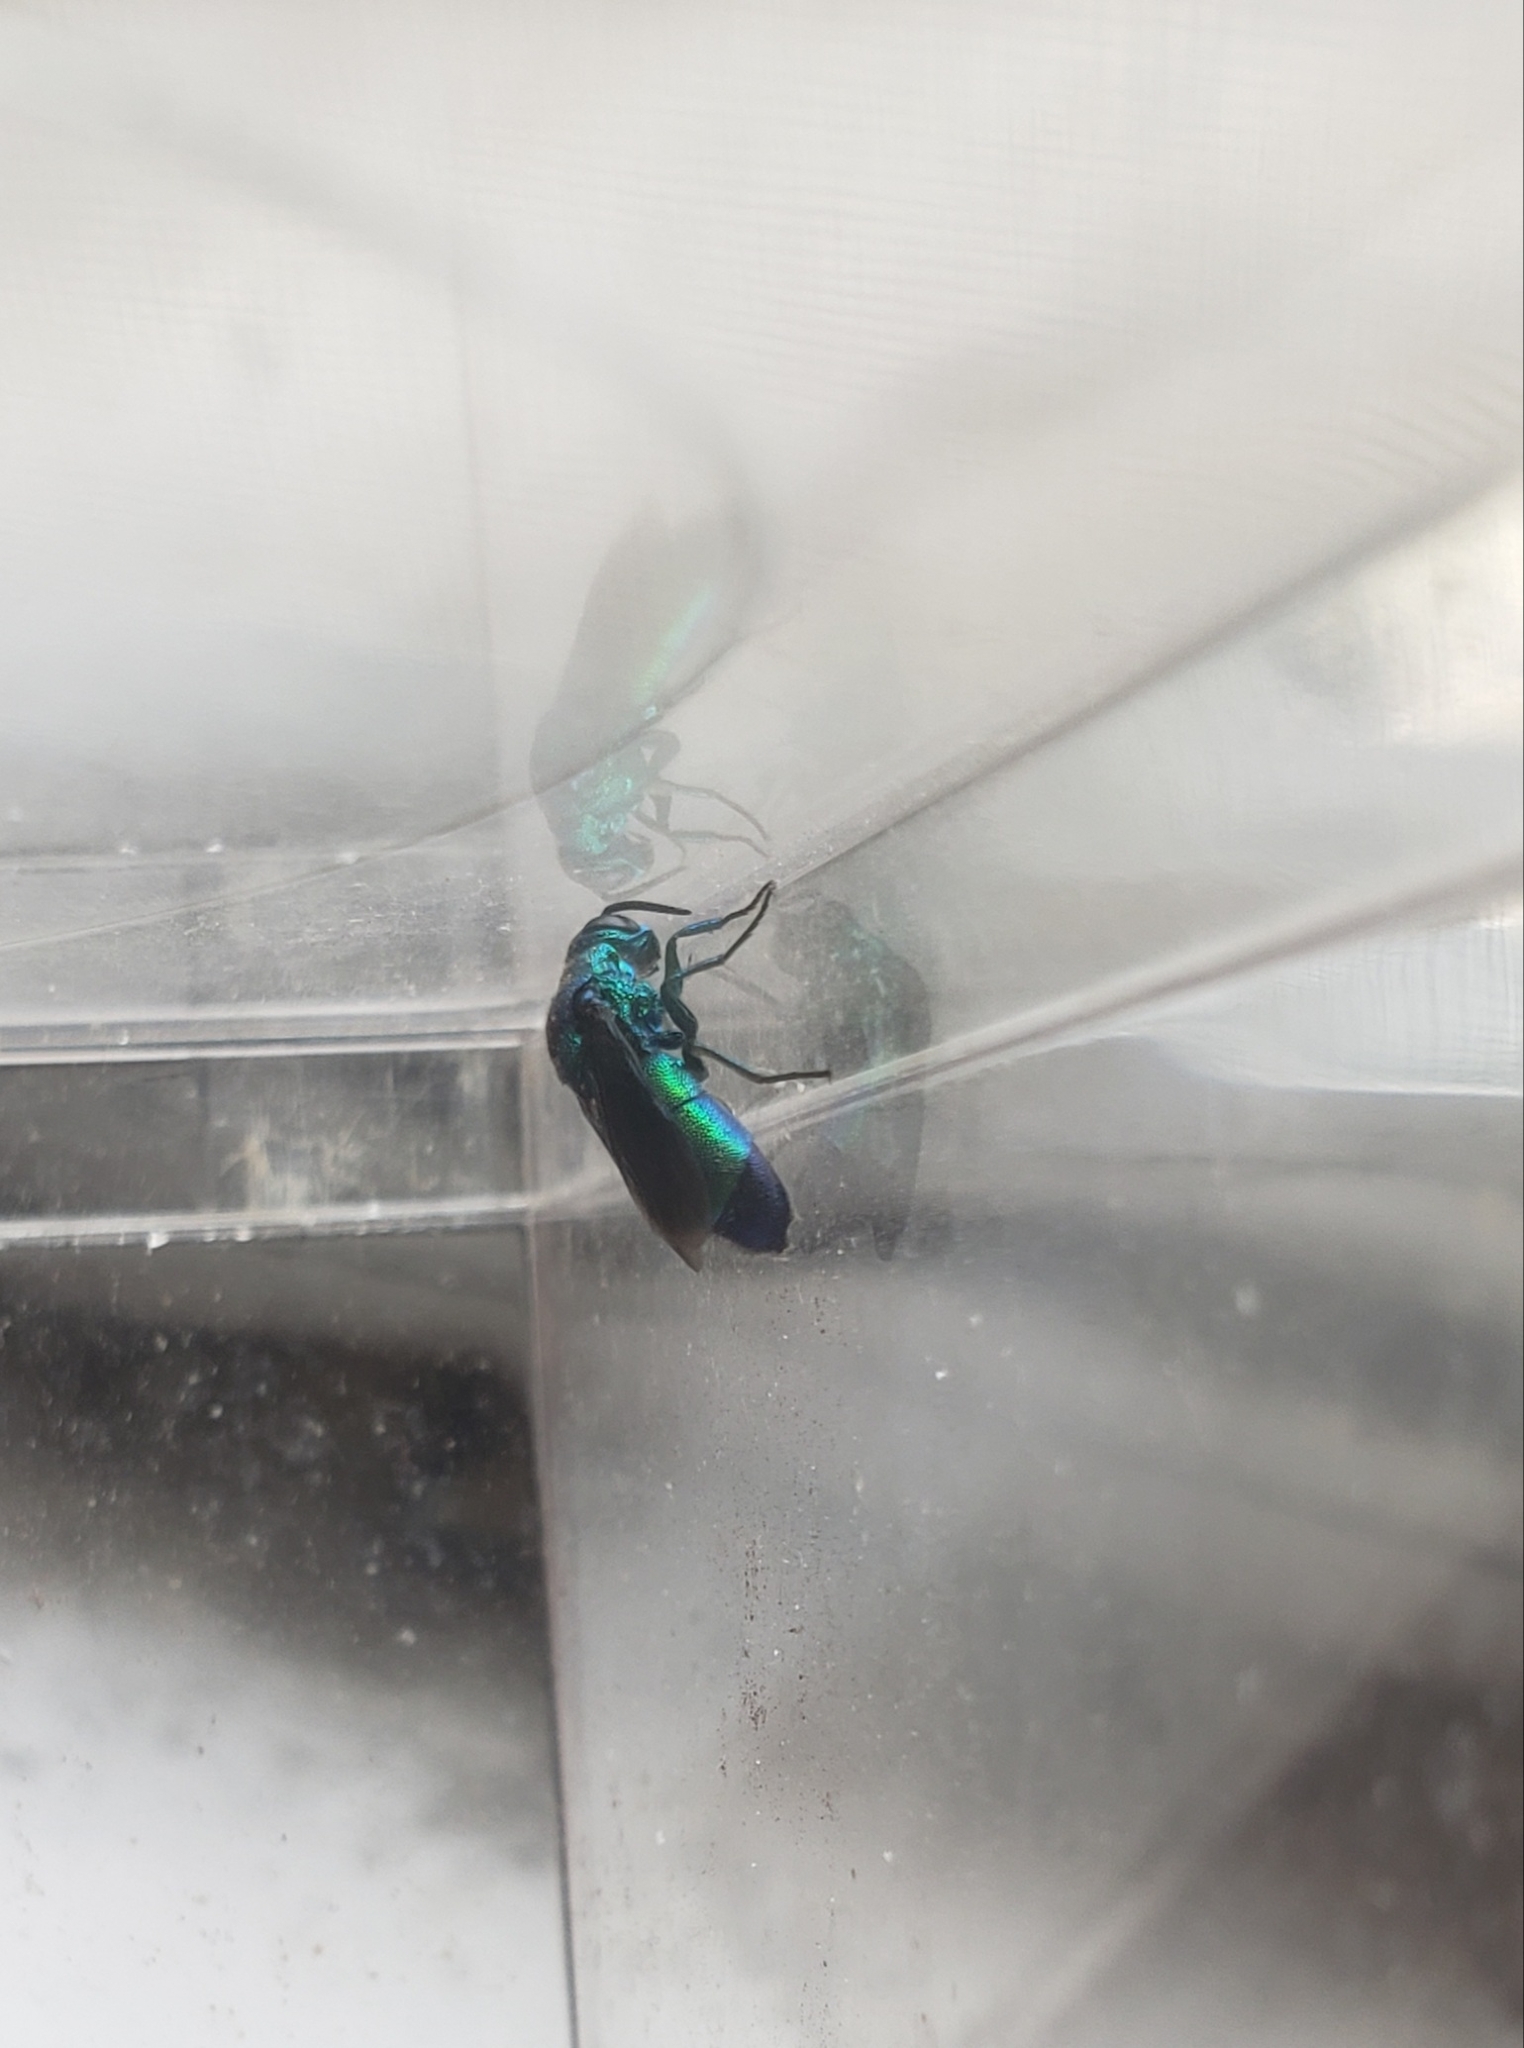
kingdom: Animalia
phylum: Arthropoda
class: Insecta
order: Hymenoptera
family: Chrysididae
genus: Chrysis
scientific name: Chrysis angolensis
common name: Cuckoo wasp
